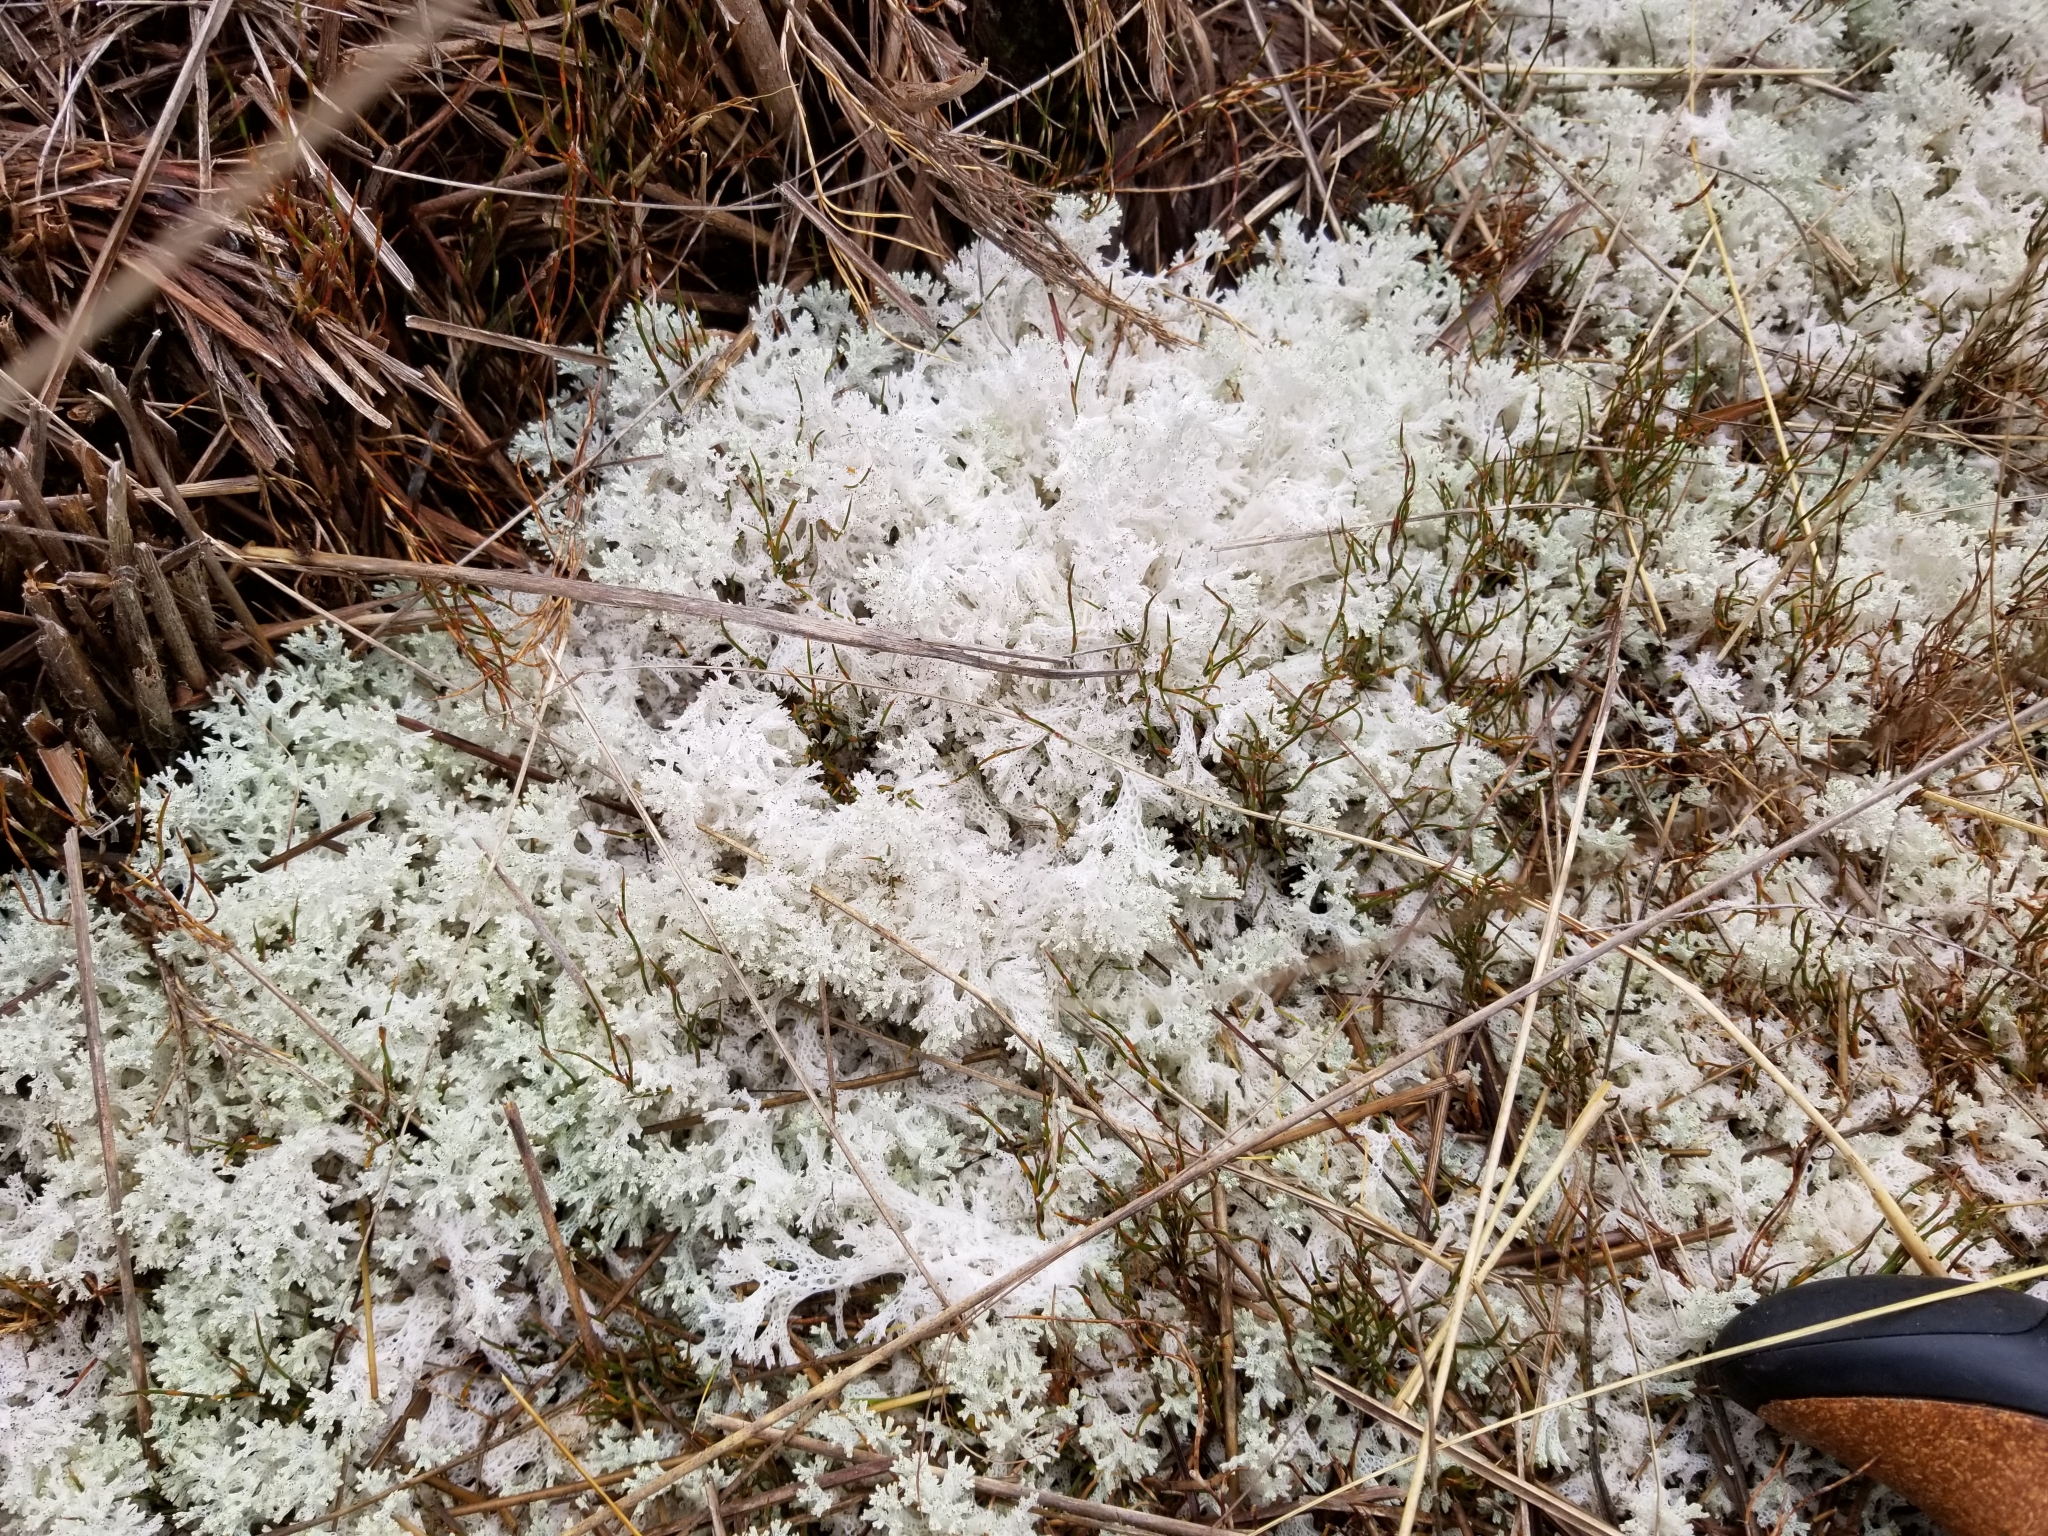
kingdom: Fungi
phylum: Ascomycota
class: Lecanoromycetes
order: Lecanorales
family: Cladoniaceae
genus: Pulchrocladia
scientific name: Pulchrocladia retipora
